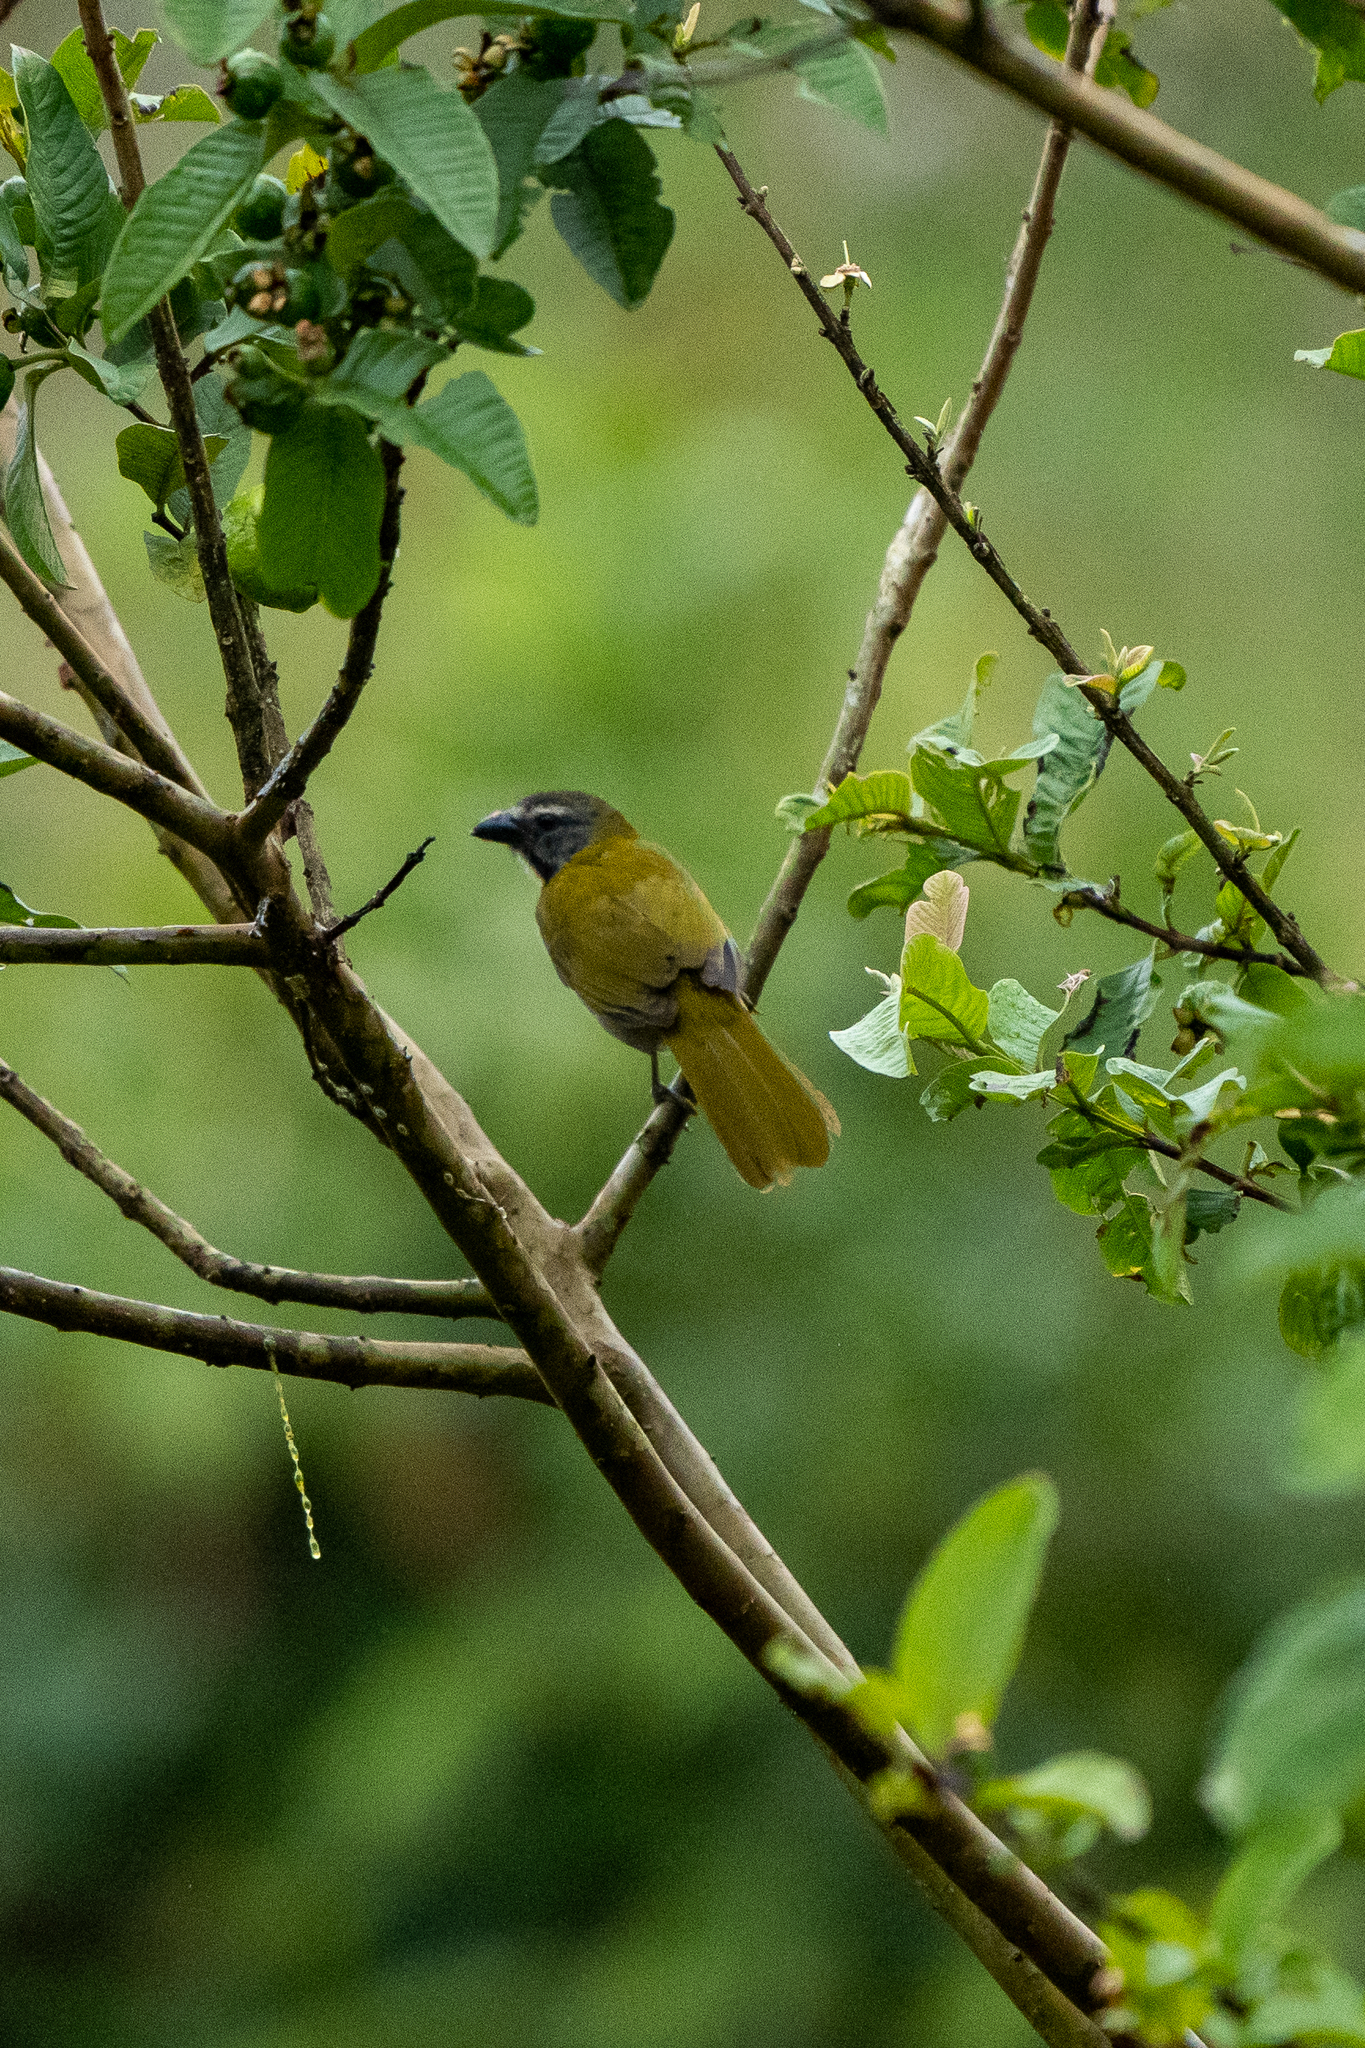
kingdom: Animalia
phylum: Chordata
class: Aves
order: Passeriformes
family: Thraupidae
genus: Saltator
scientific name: Saltator maximus
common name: Buff-throated saltator
